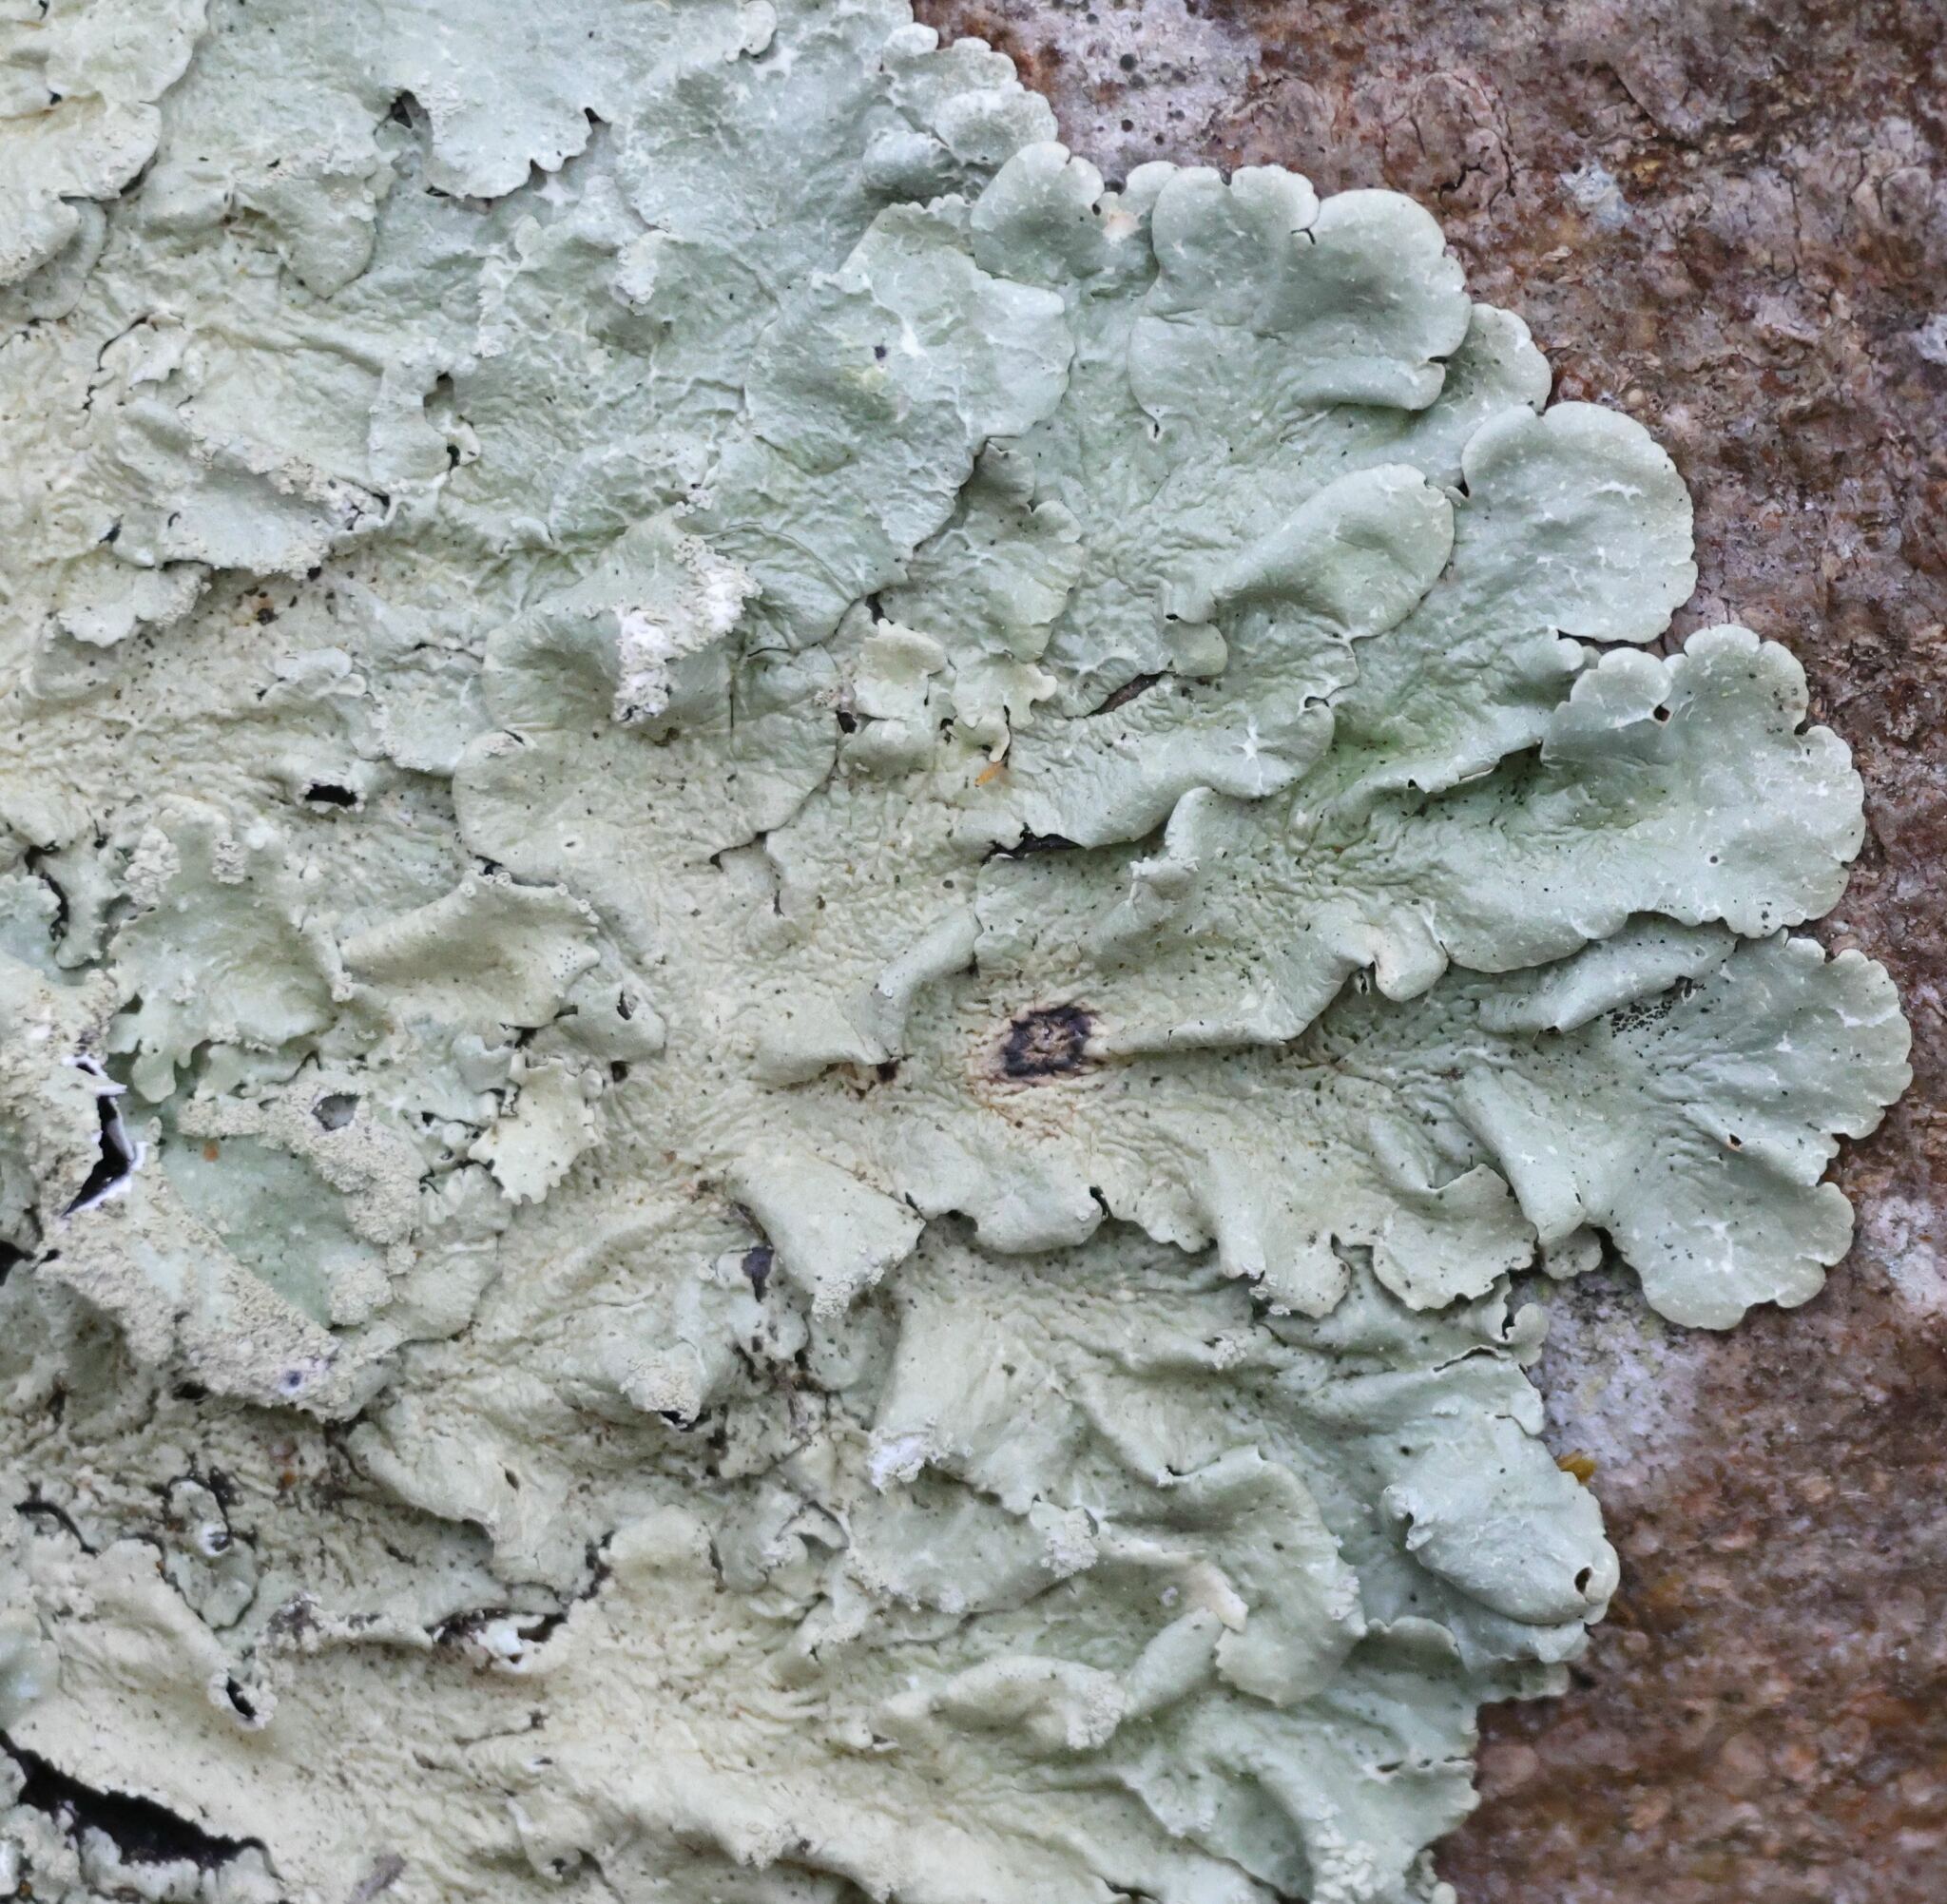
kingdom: Fungi
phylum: Ascomycota
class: Lecanoromycetes
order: Lecanorales
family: Parmeliaceae
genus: Flavoparmelia
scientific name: Flavoparmelia caperata
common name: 40-mile per hour lichen
